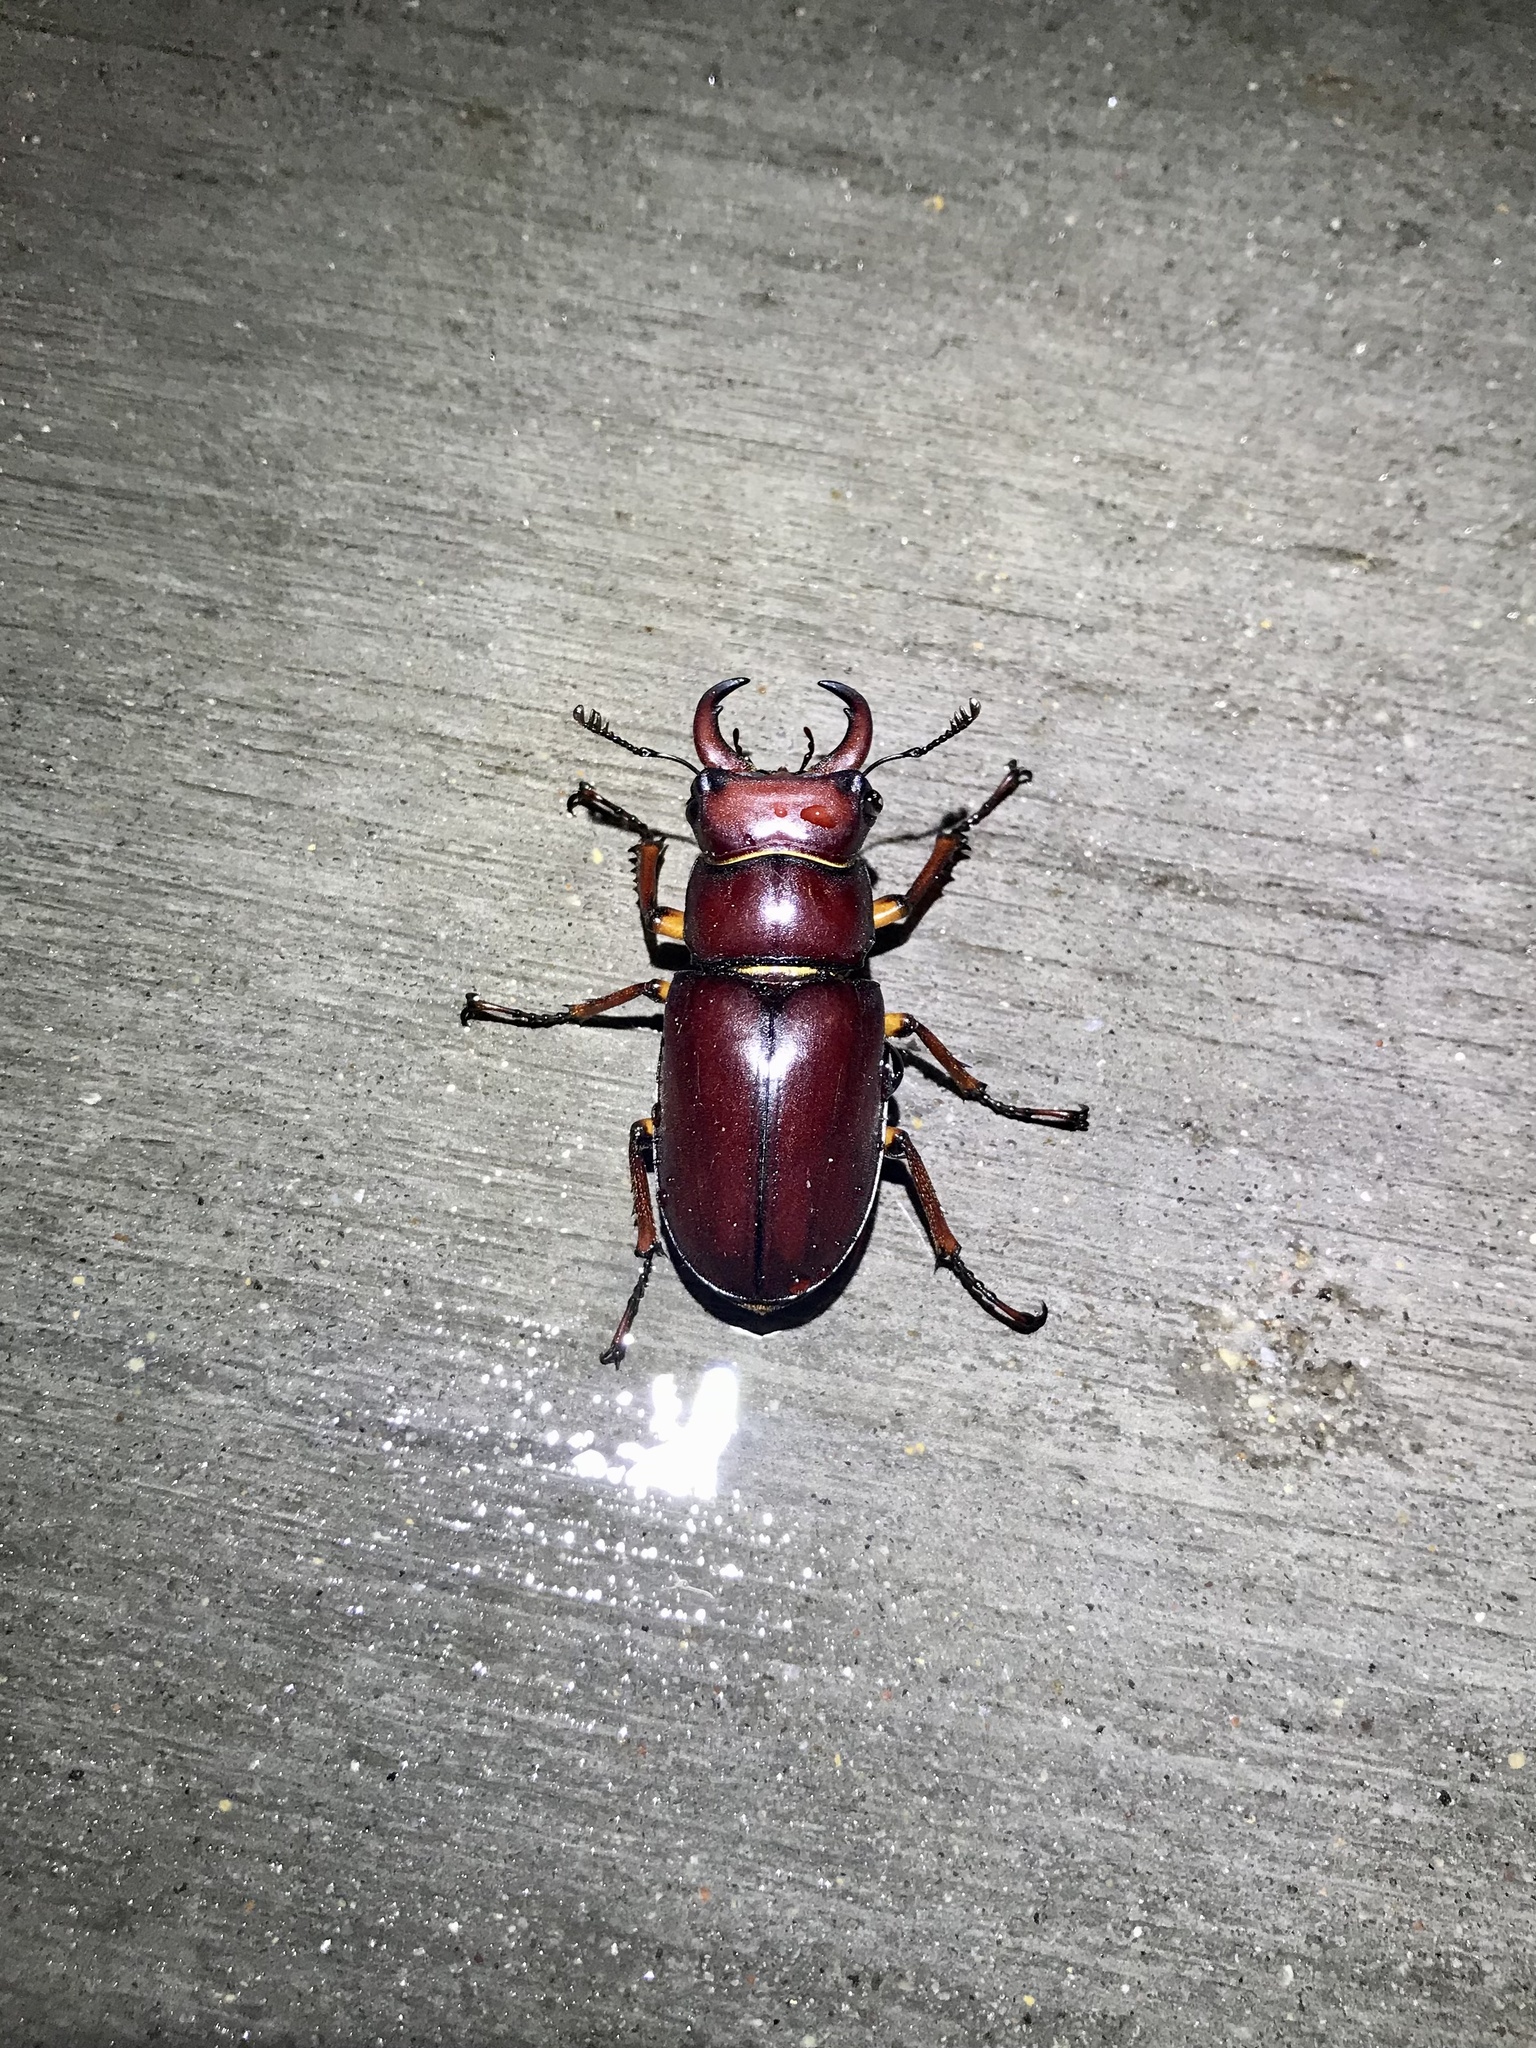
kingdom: Animalia
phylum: Arthropoda
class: Insecta
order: Coleoptera
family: Lucanidae
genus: Lucanus
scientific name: Lucanus capreolus
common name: Stag beetle
